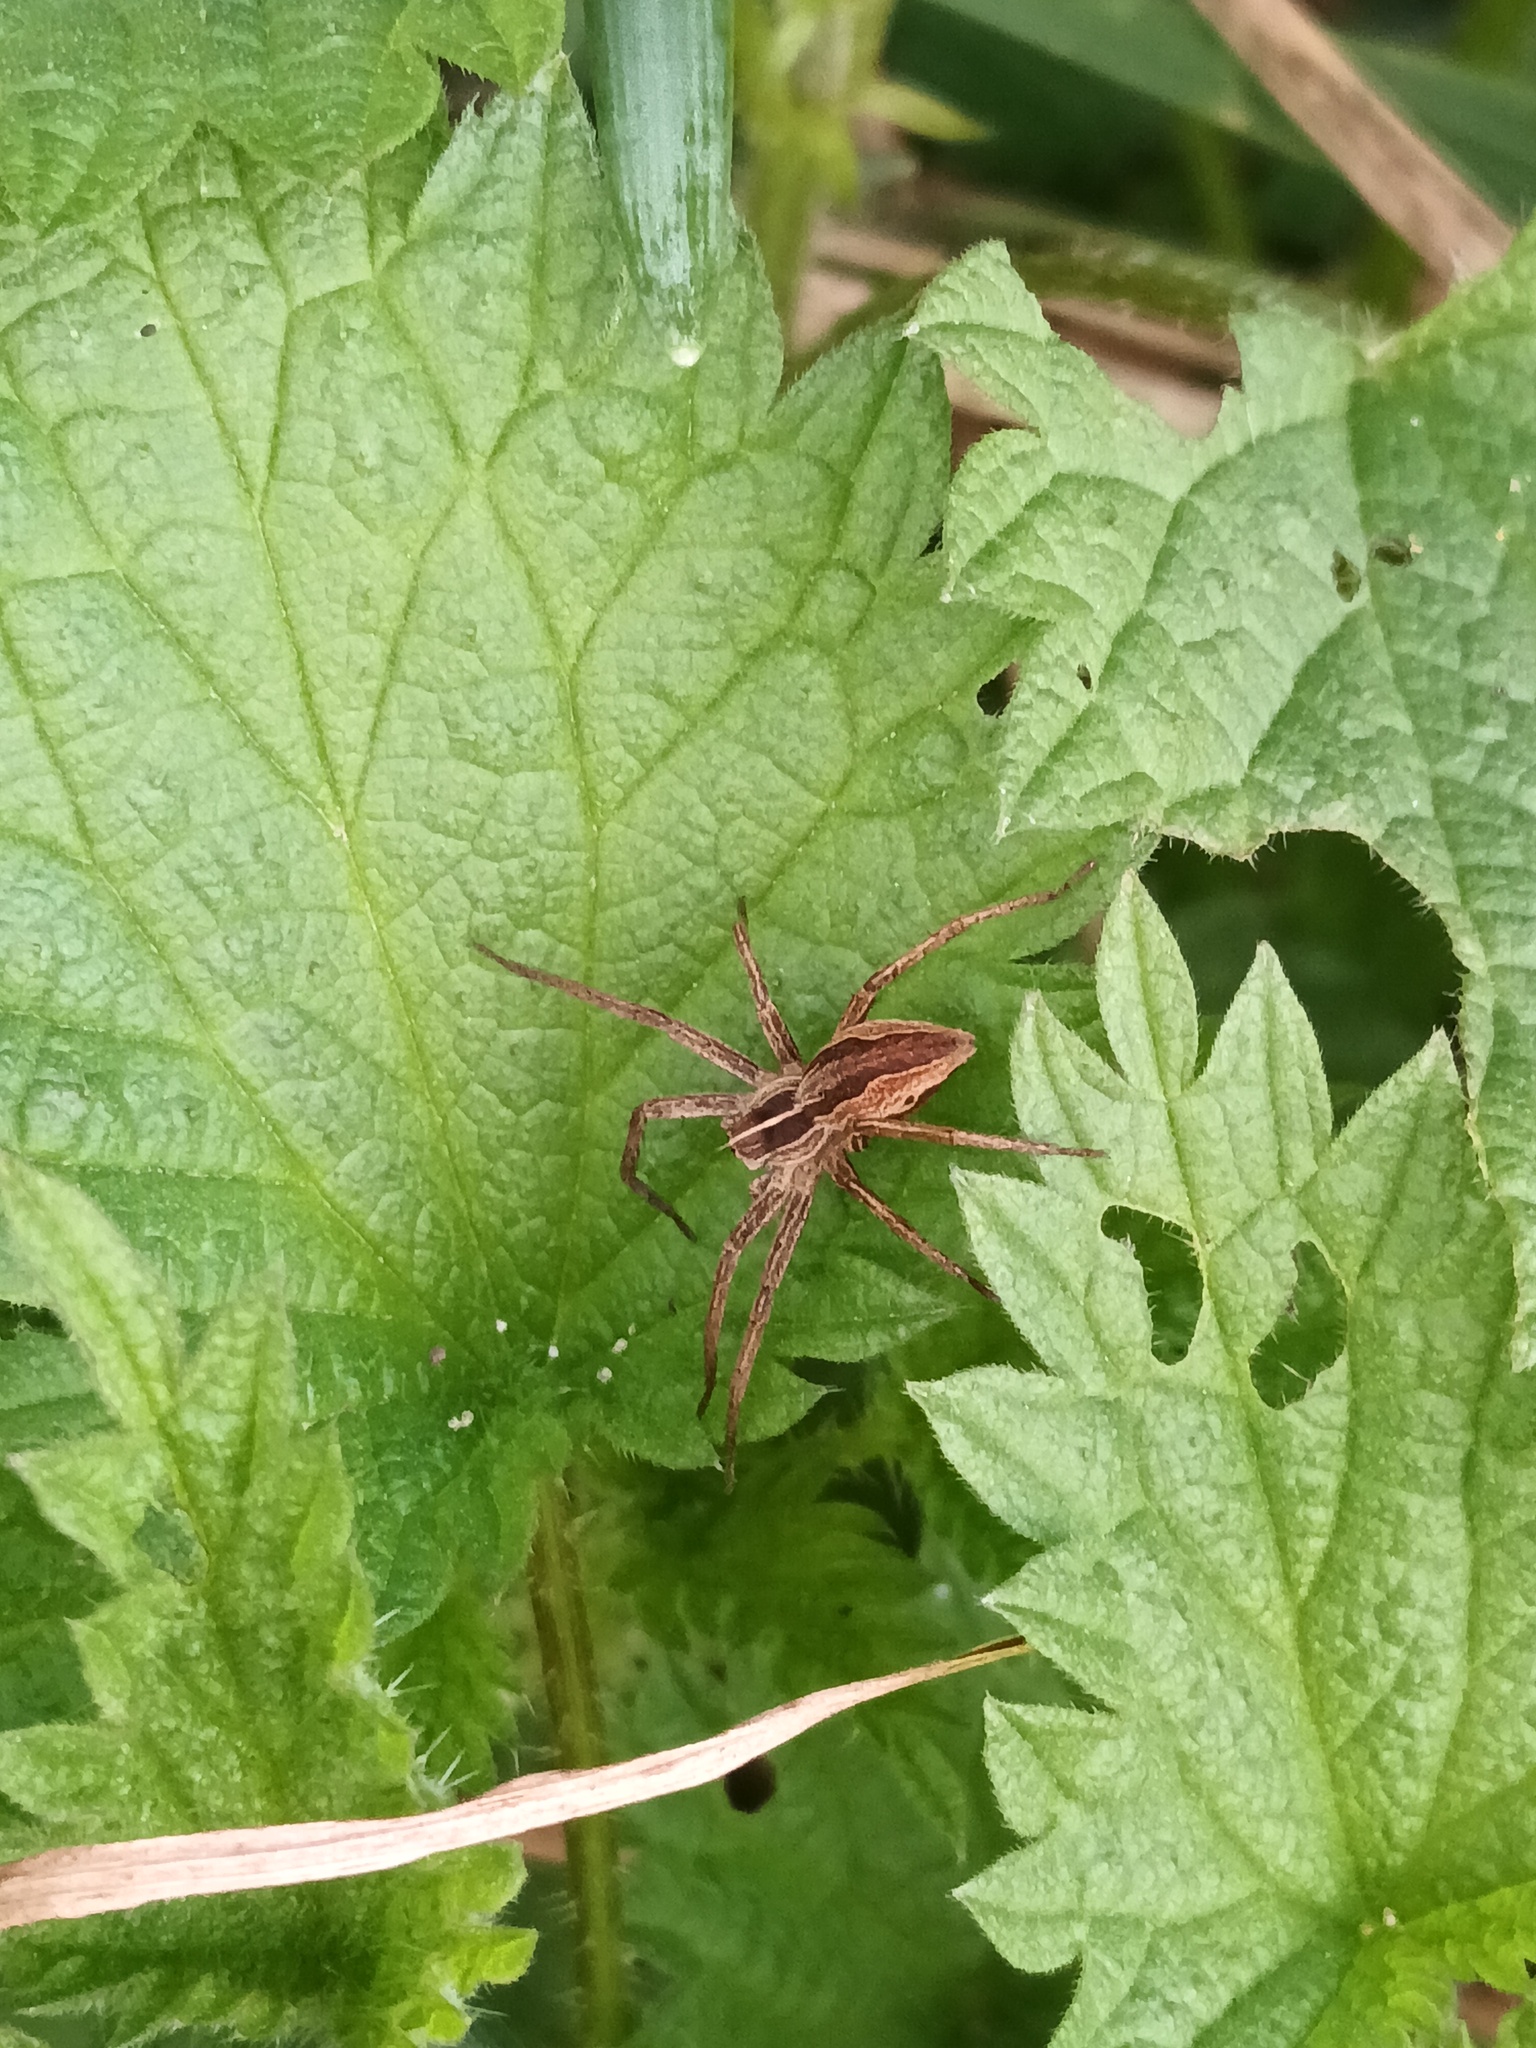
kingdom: Animalia
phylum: Arthropoda
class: Arachnida
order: Araneae
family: Pisauridae
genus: Pisaura
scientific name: Pisaura mirabilis
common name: Tent spider
